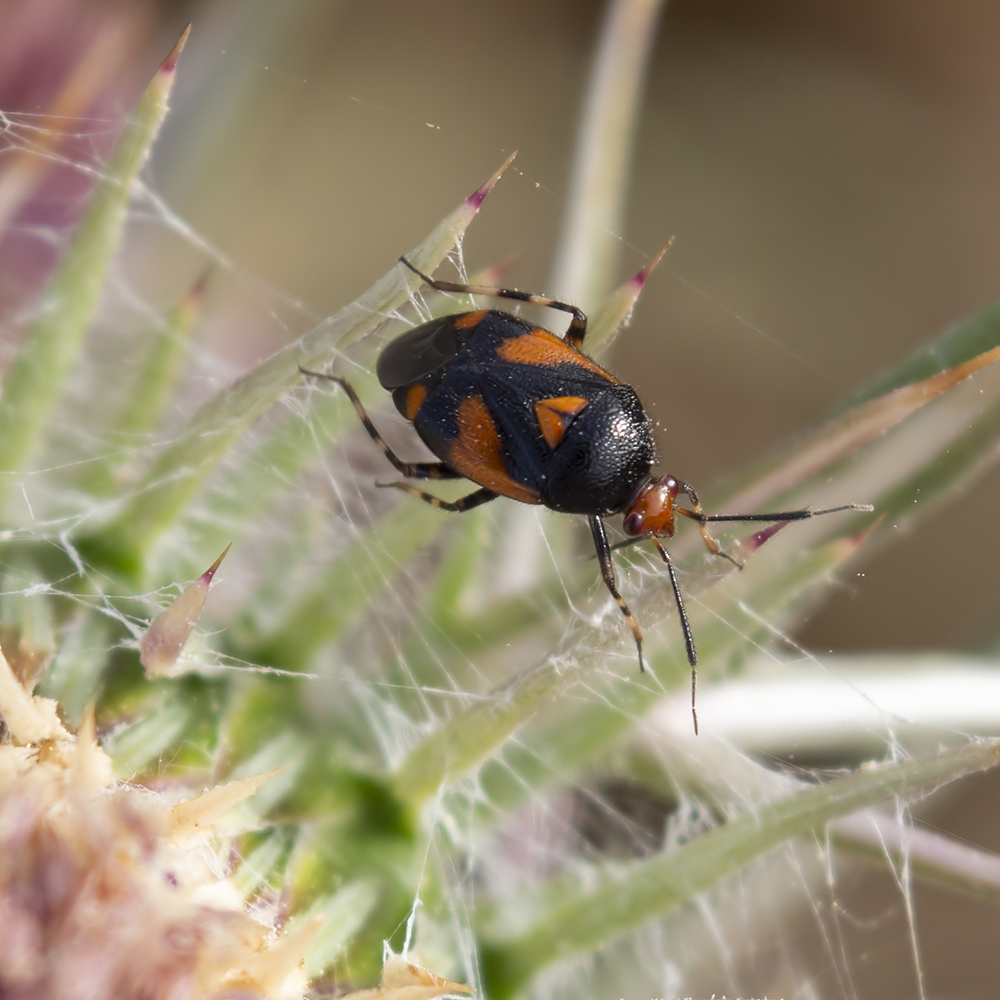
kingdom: Animalia
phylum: Arthropoda
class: Insecta
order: Hemiptera
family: Miridae
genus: Deraeocoris
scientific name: Deraeocoris schach
